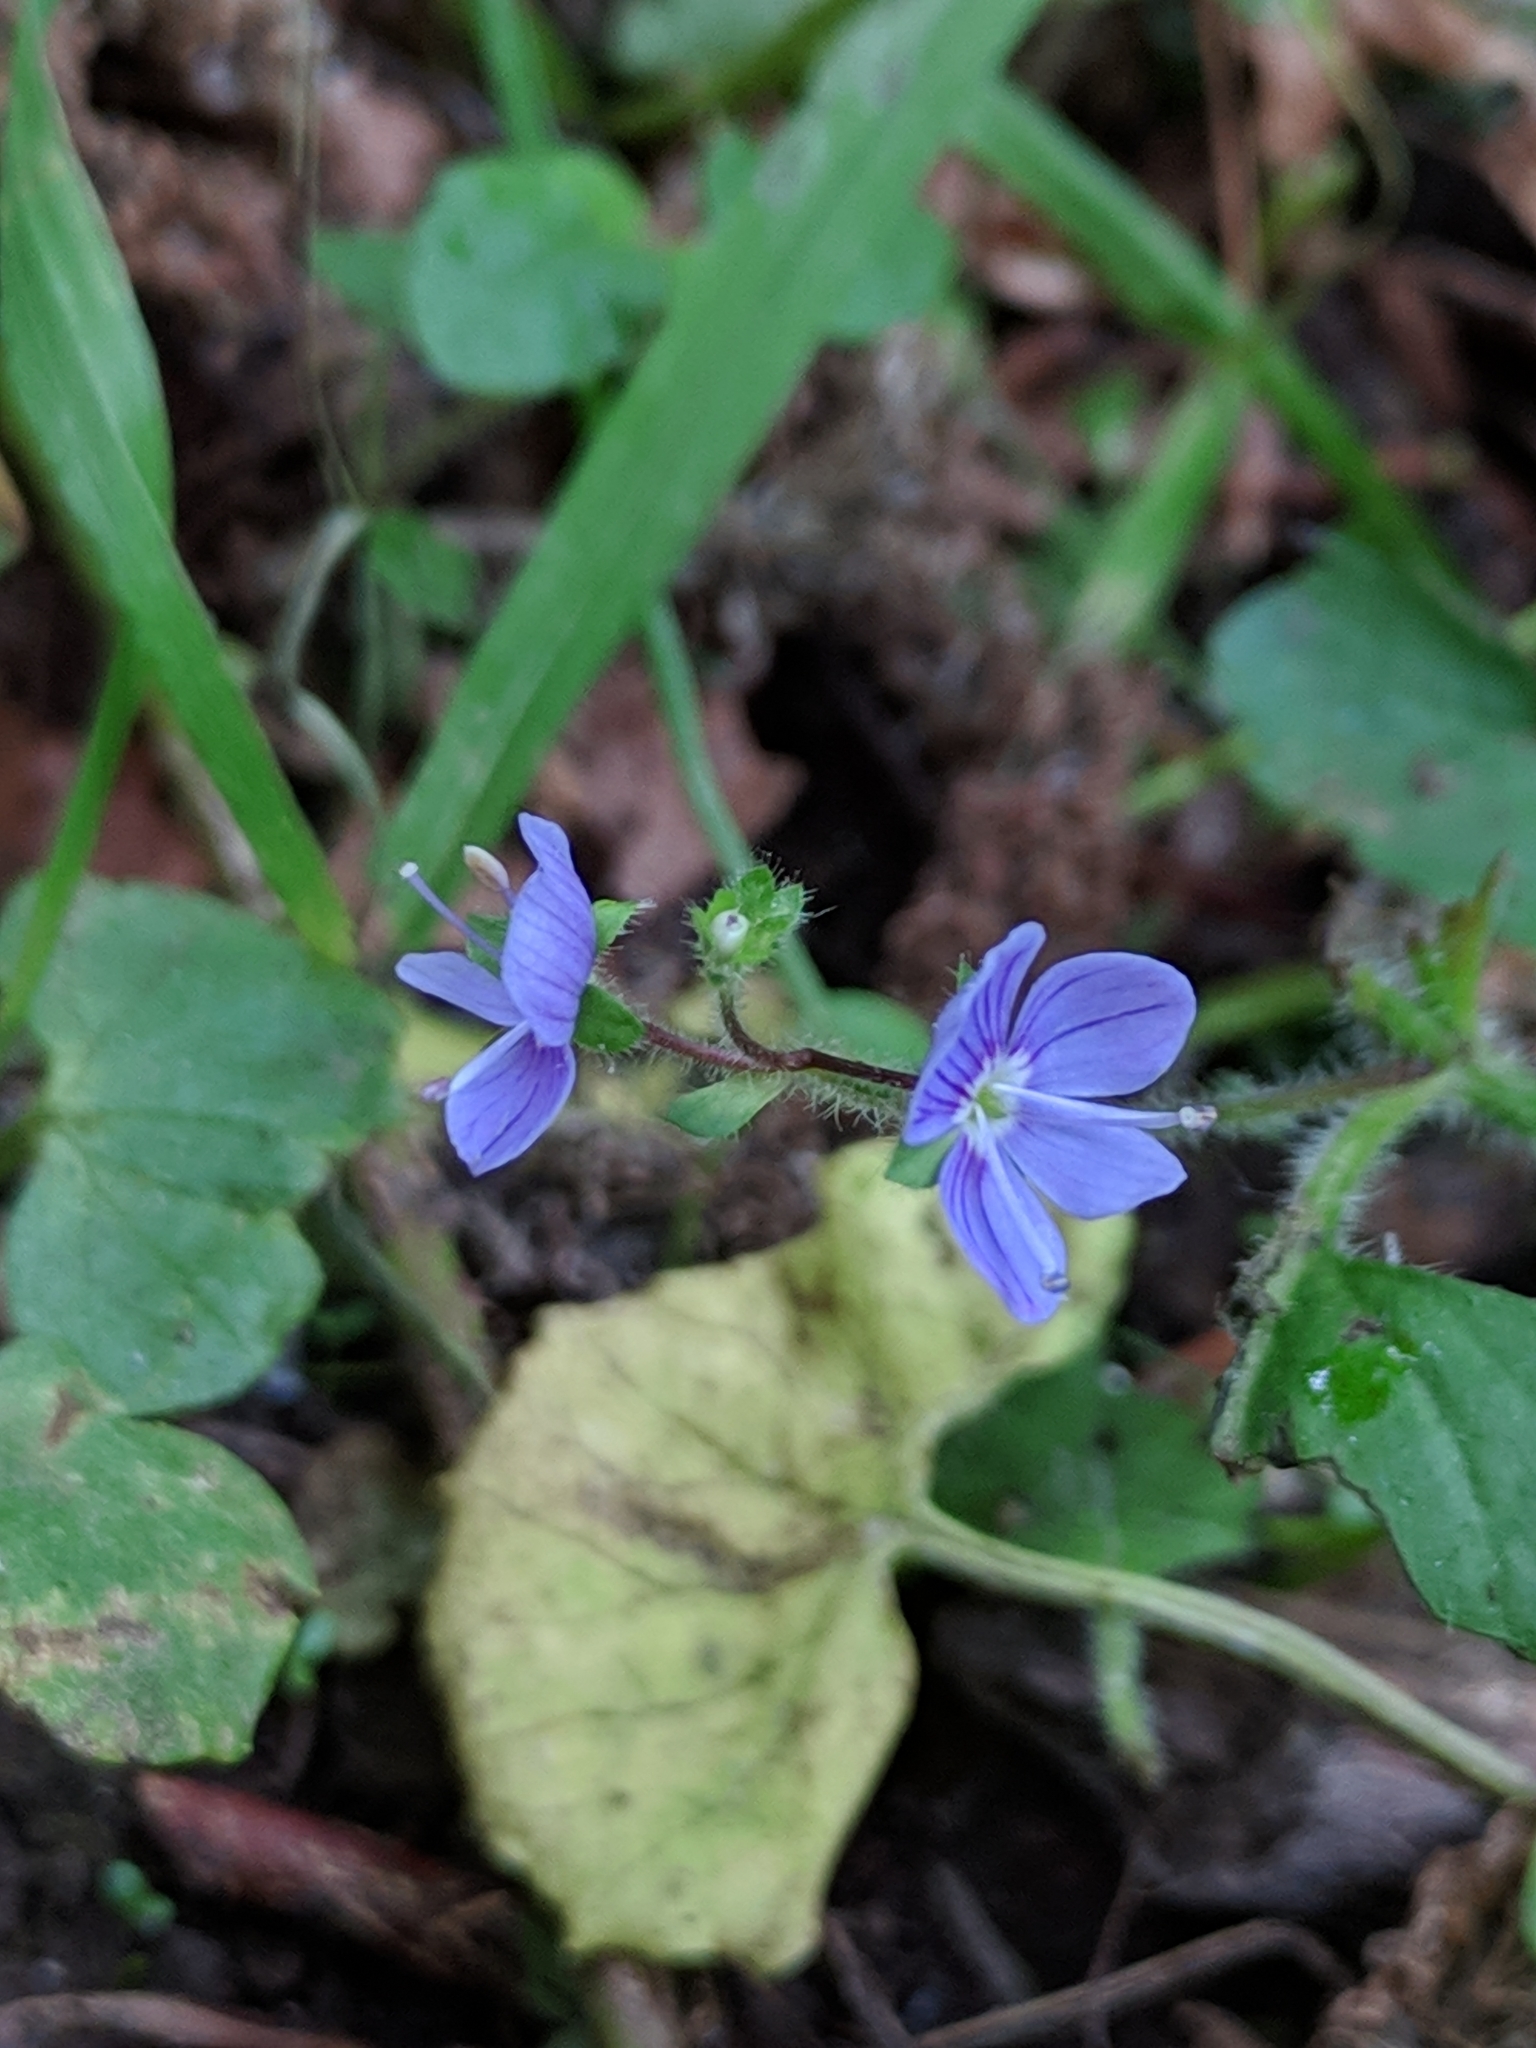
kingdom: Plantae
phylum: Tracheophyta
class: Magnoliopsida
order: Lamiales
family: Plantaginaceae
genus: Veronica
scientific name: Veronica montana
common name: Wood speedwell
